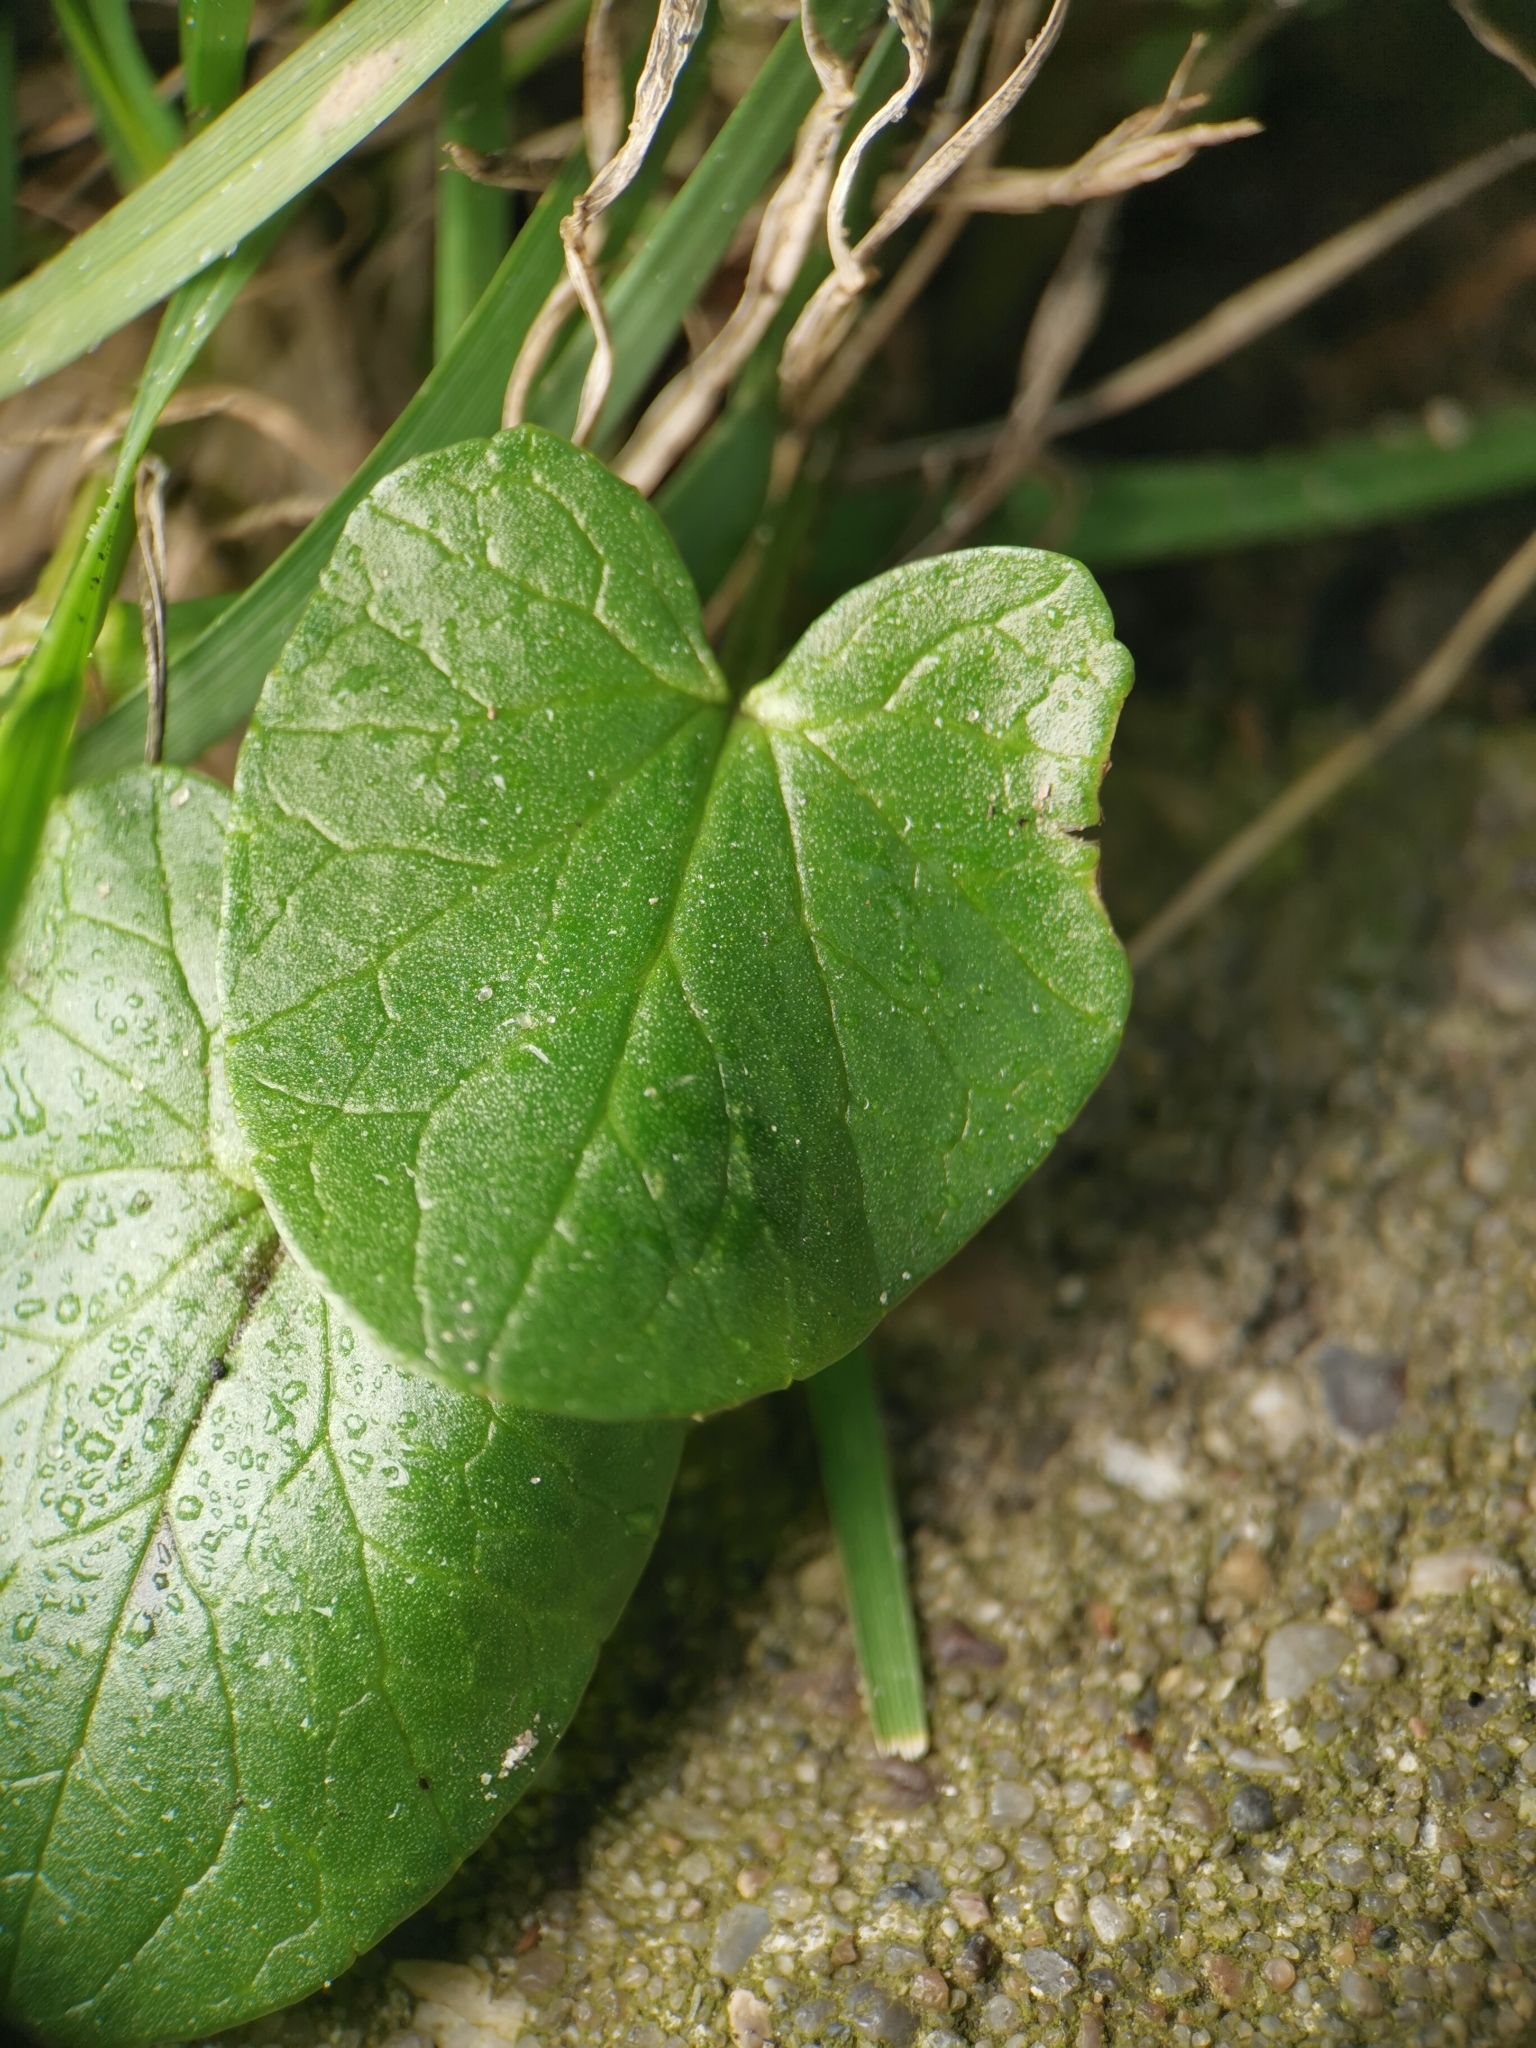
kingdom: Plantae
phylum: Tracheophyta
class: Magnoliopsida
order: Ranunculales
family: Ranunculaceae
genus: Ficaria
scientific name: Ficaria verna
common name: Lesser celandine
